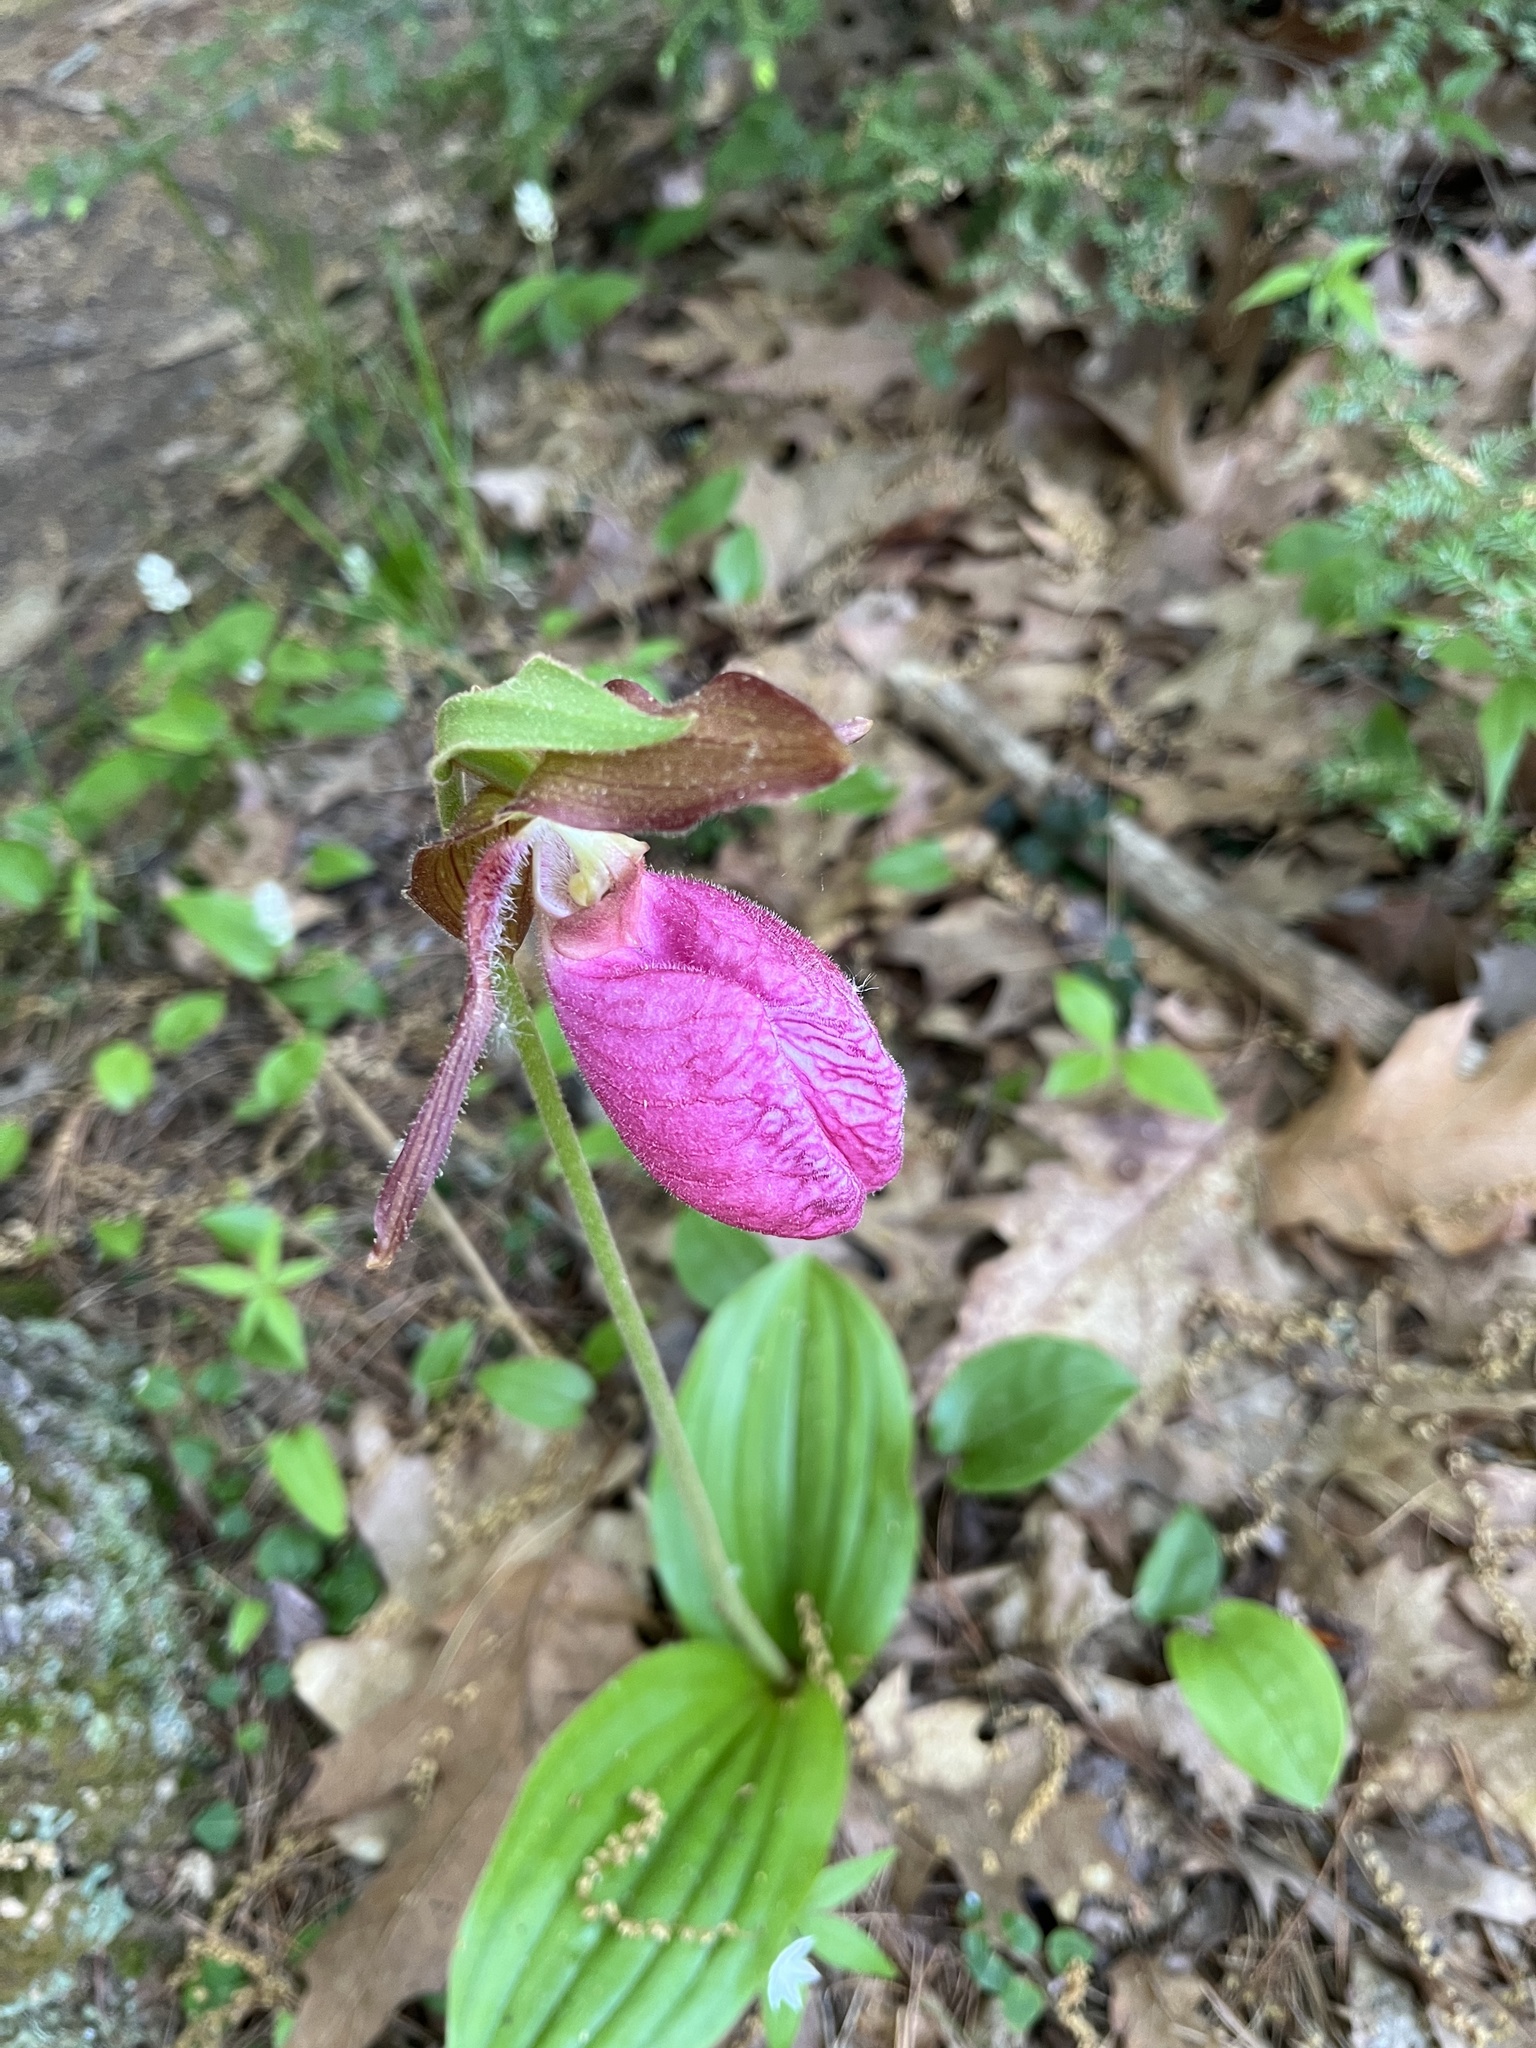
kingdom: Plantae
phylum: Tracheophyta
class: Liliopsida
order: Asparagales
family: Orchidaceae
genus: Cypripedium
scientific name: Cypripedium acaule
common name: Pink lady's-slipper
